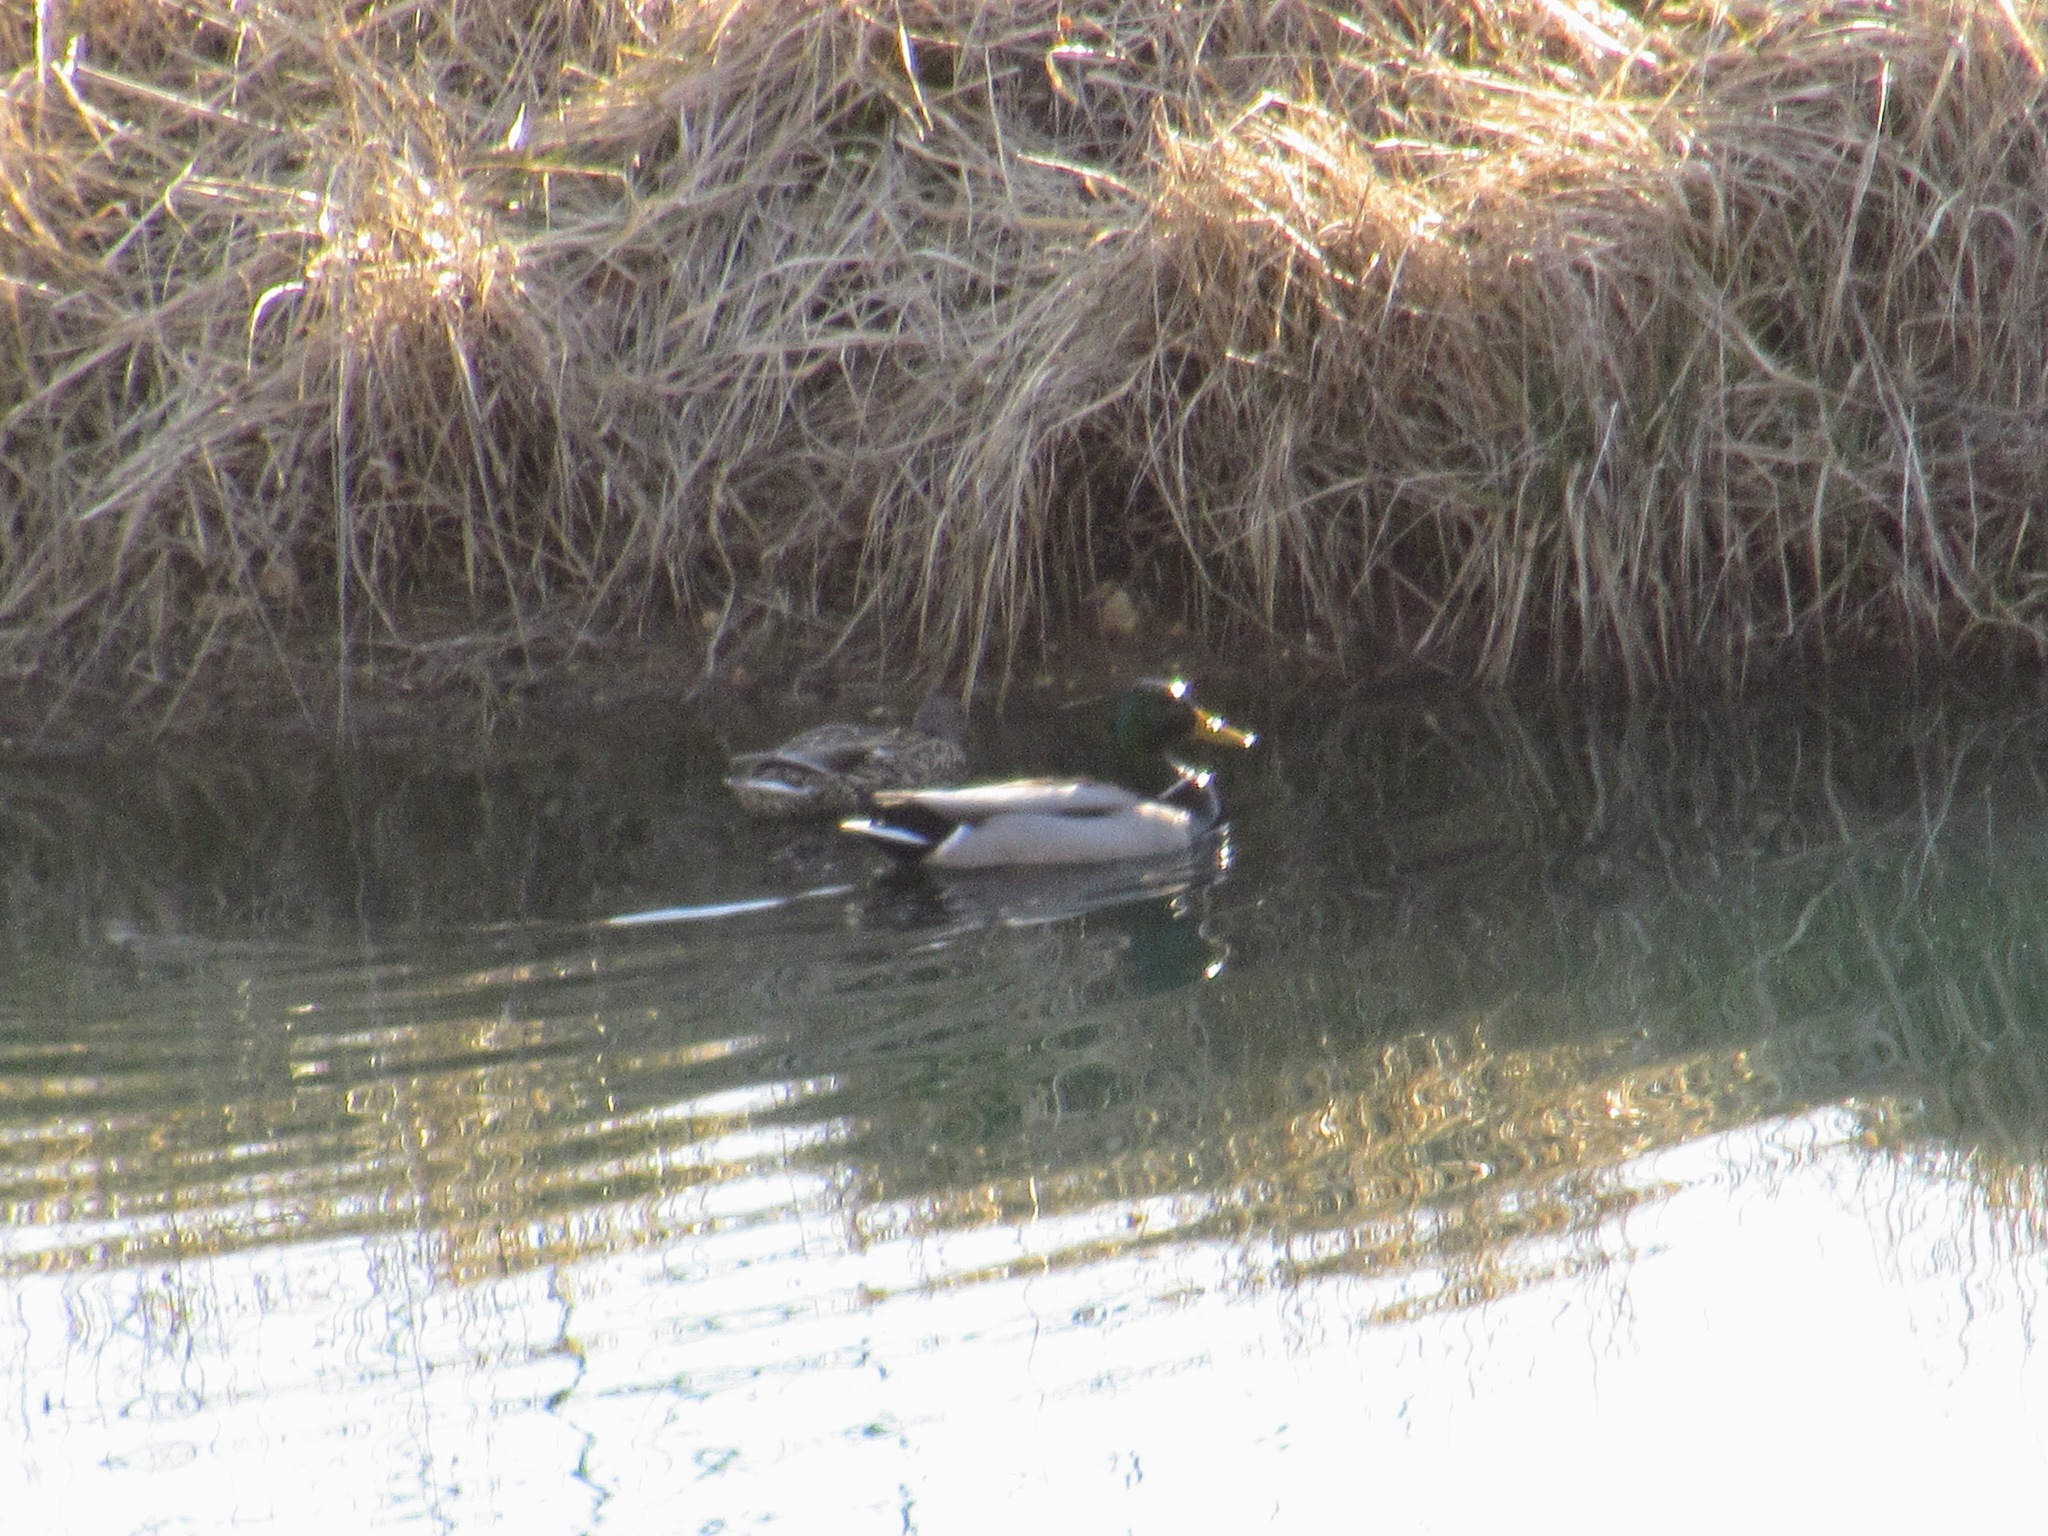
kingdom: Animalia
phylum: Chordata
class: Aves
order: Anseriformes
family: Anatidae
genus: Anas
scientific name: Anas platyrhynchos
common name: Mallard
